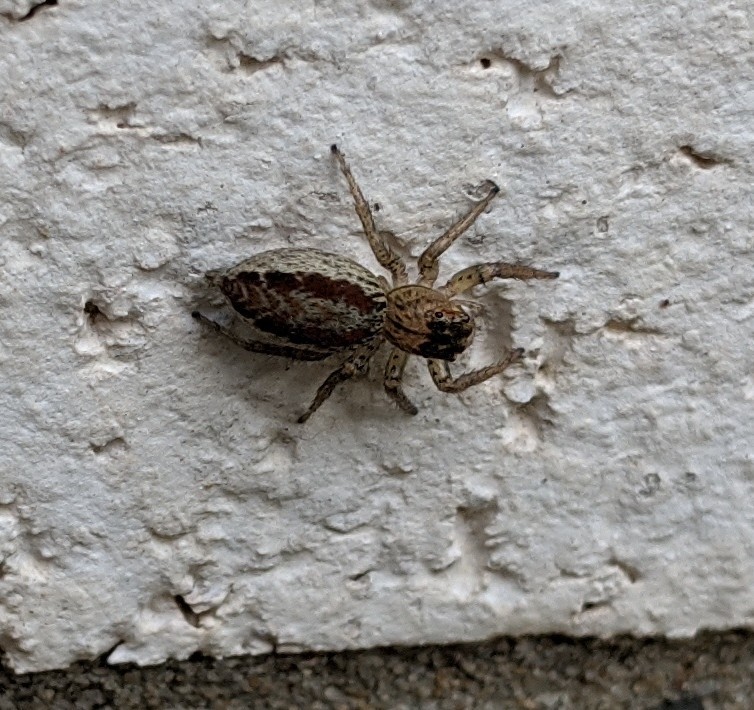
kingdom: Animalia
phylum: Arthropoda
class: Arachnida
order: Araneae
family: Salticidae
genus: Maevia
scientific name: Maevia inclemens
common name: Dimorphic jumper
